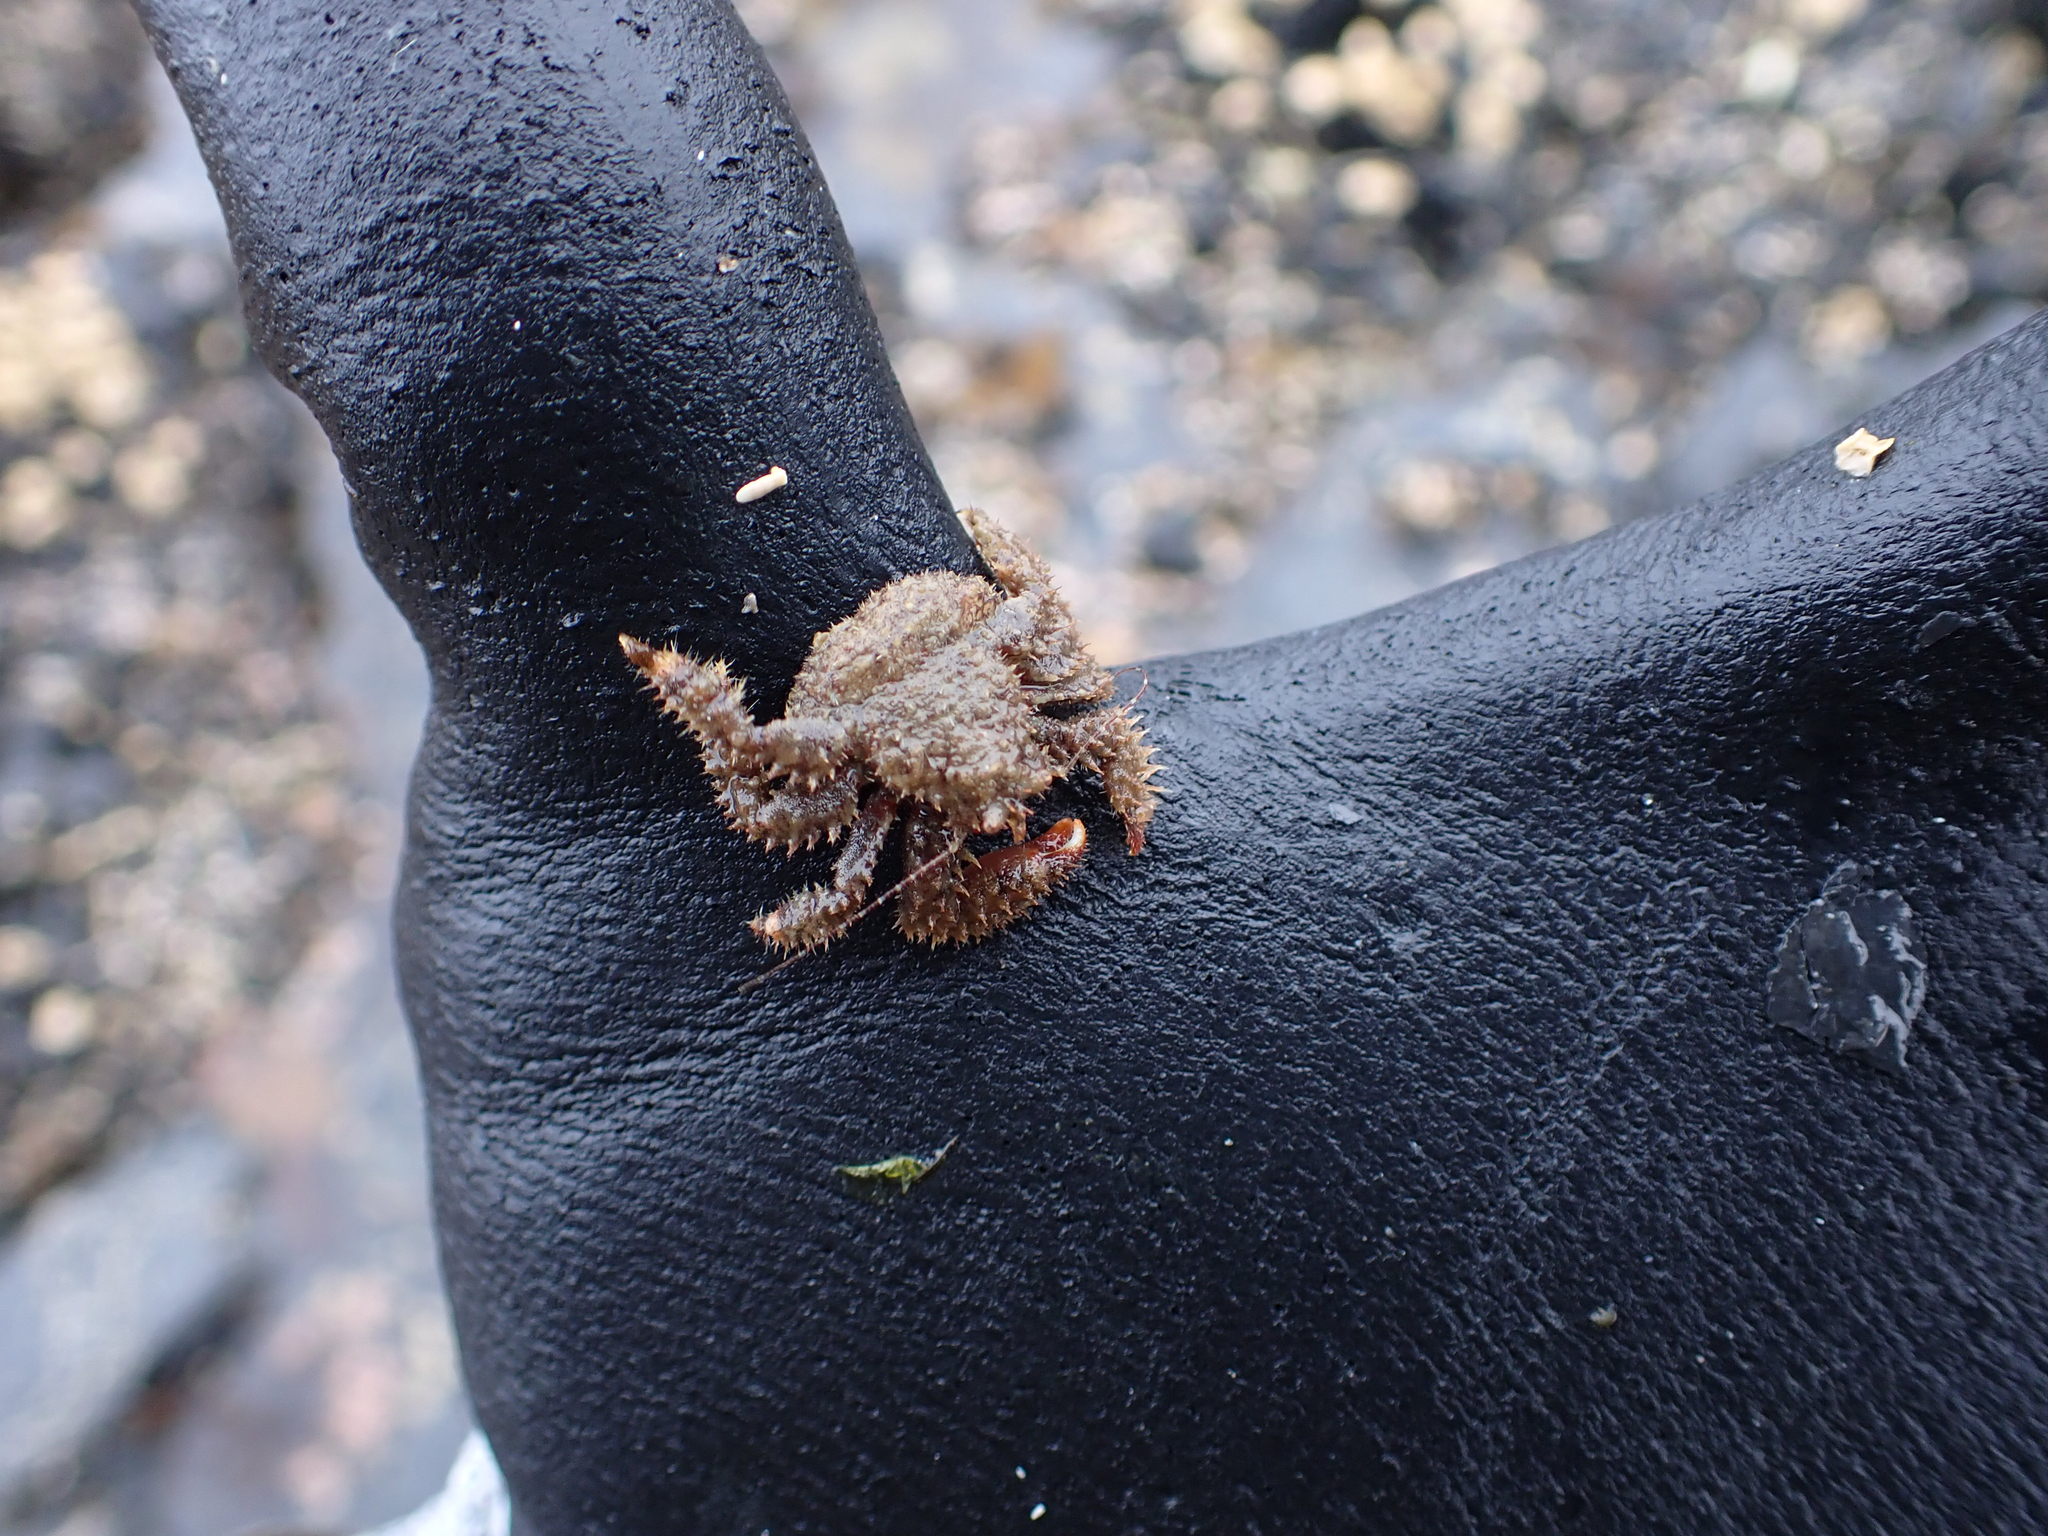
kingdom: Animalia
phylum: Arthropoda
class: Malacostraca
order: Decapoda
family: Hapalogastridae
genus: Hapalogaster
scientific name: Hapalogaster mertensii
